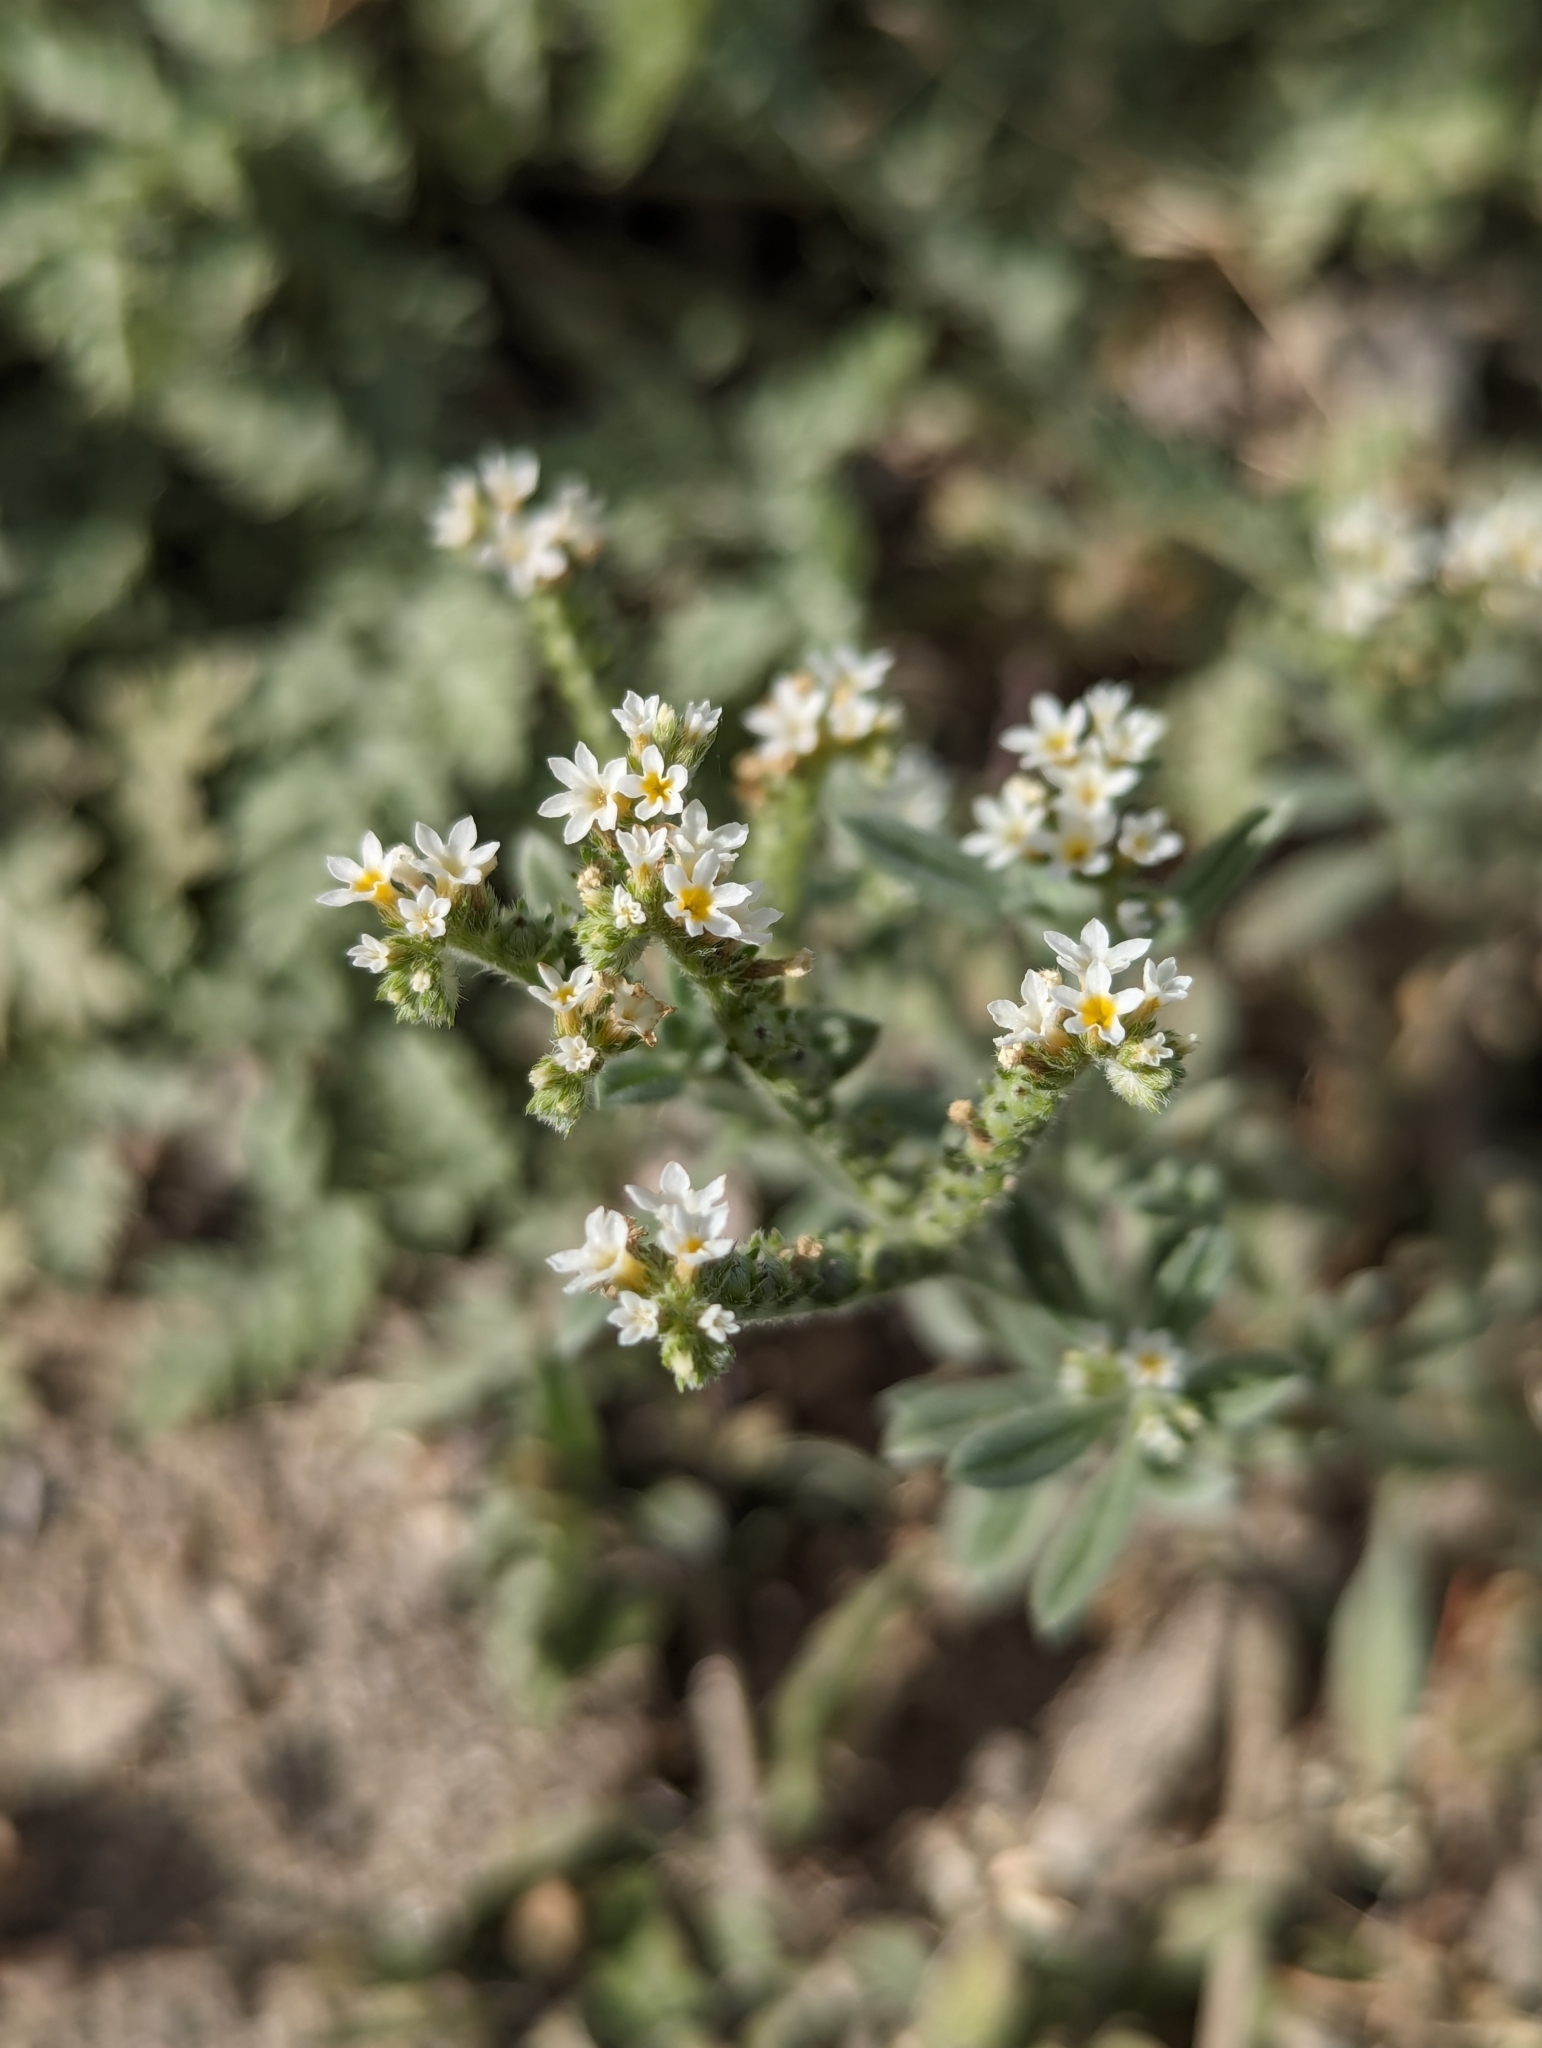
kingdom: Plantae
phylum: Tracheophyta
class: Magnoliopsida
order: Boraginales
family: Heliotropiaceae
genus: Euploca
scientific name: Euploca procumbens
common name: Fourspike heliotrope
